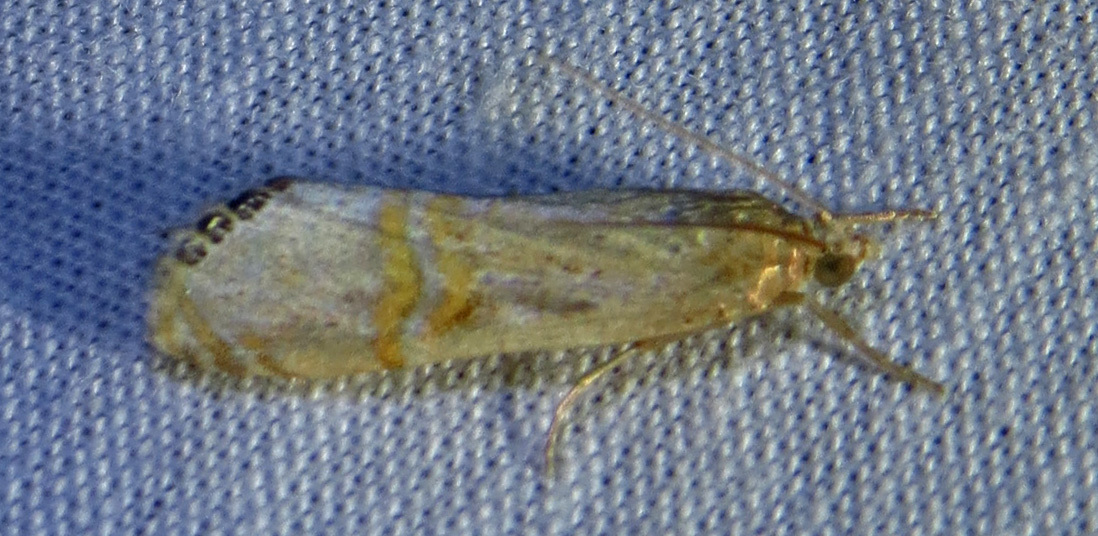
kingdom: Animalia
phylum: Arthropoda
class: Insecta
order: Lepidoptera
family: Crambidae
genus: Euchromius
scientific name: Euchromius ocellea
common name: Necklace veneer moth
